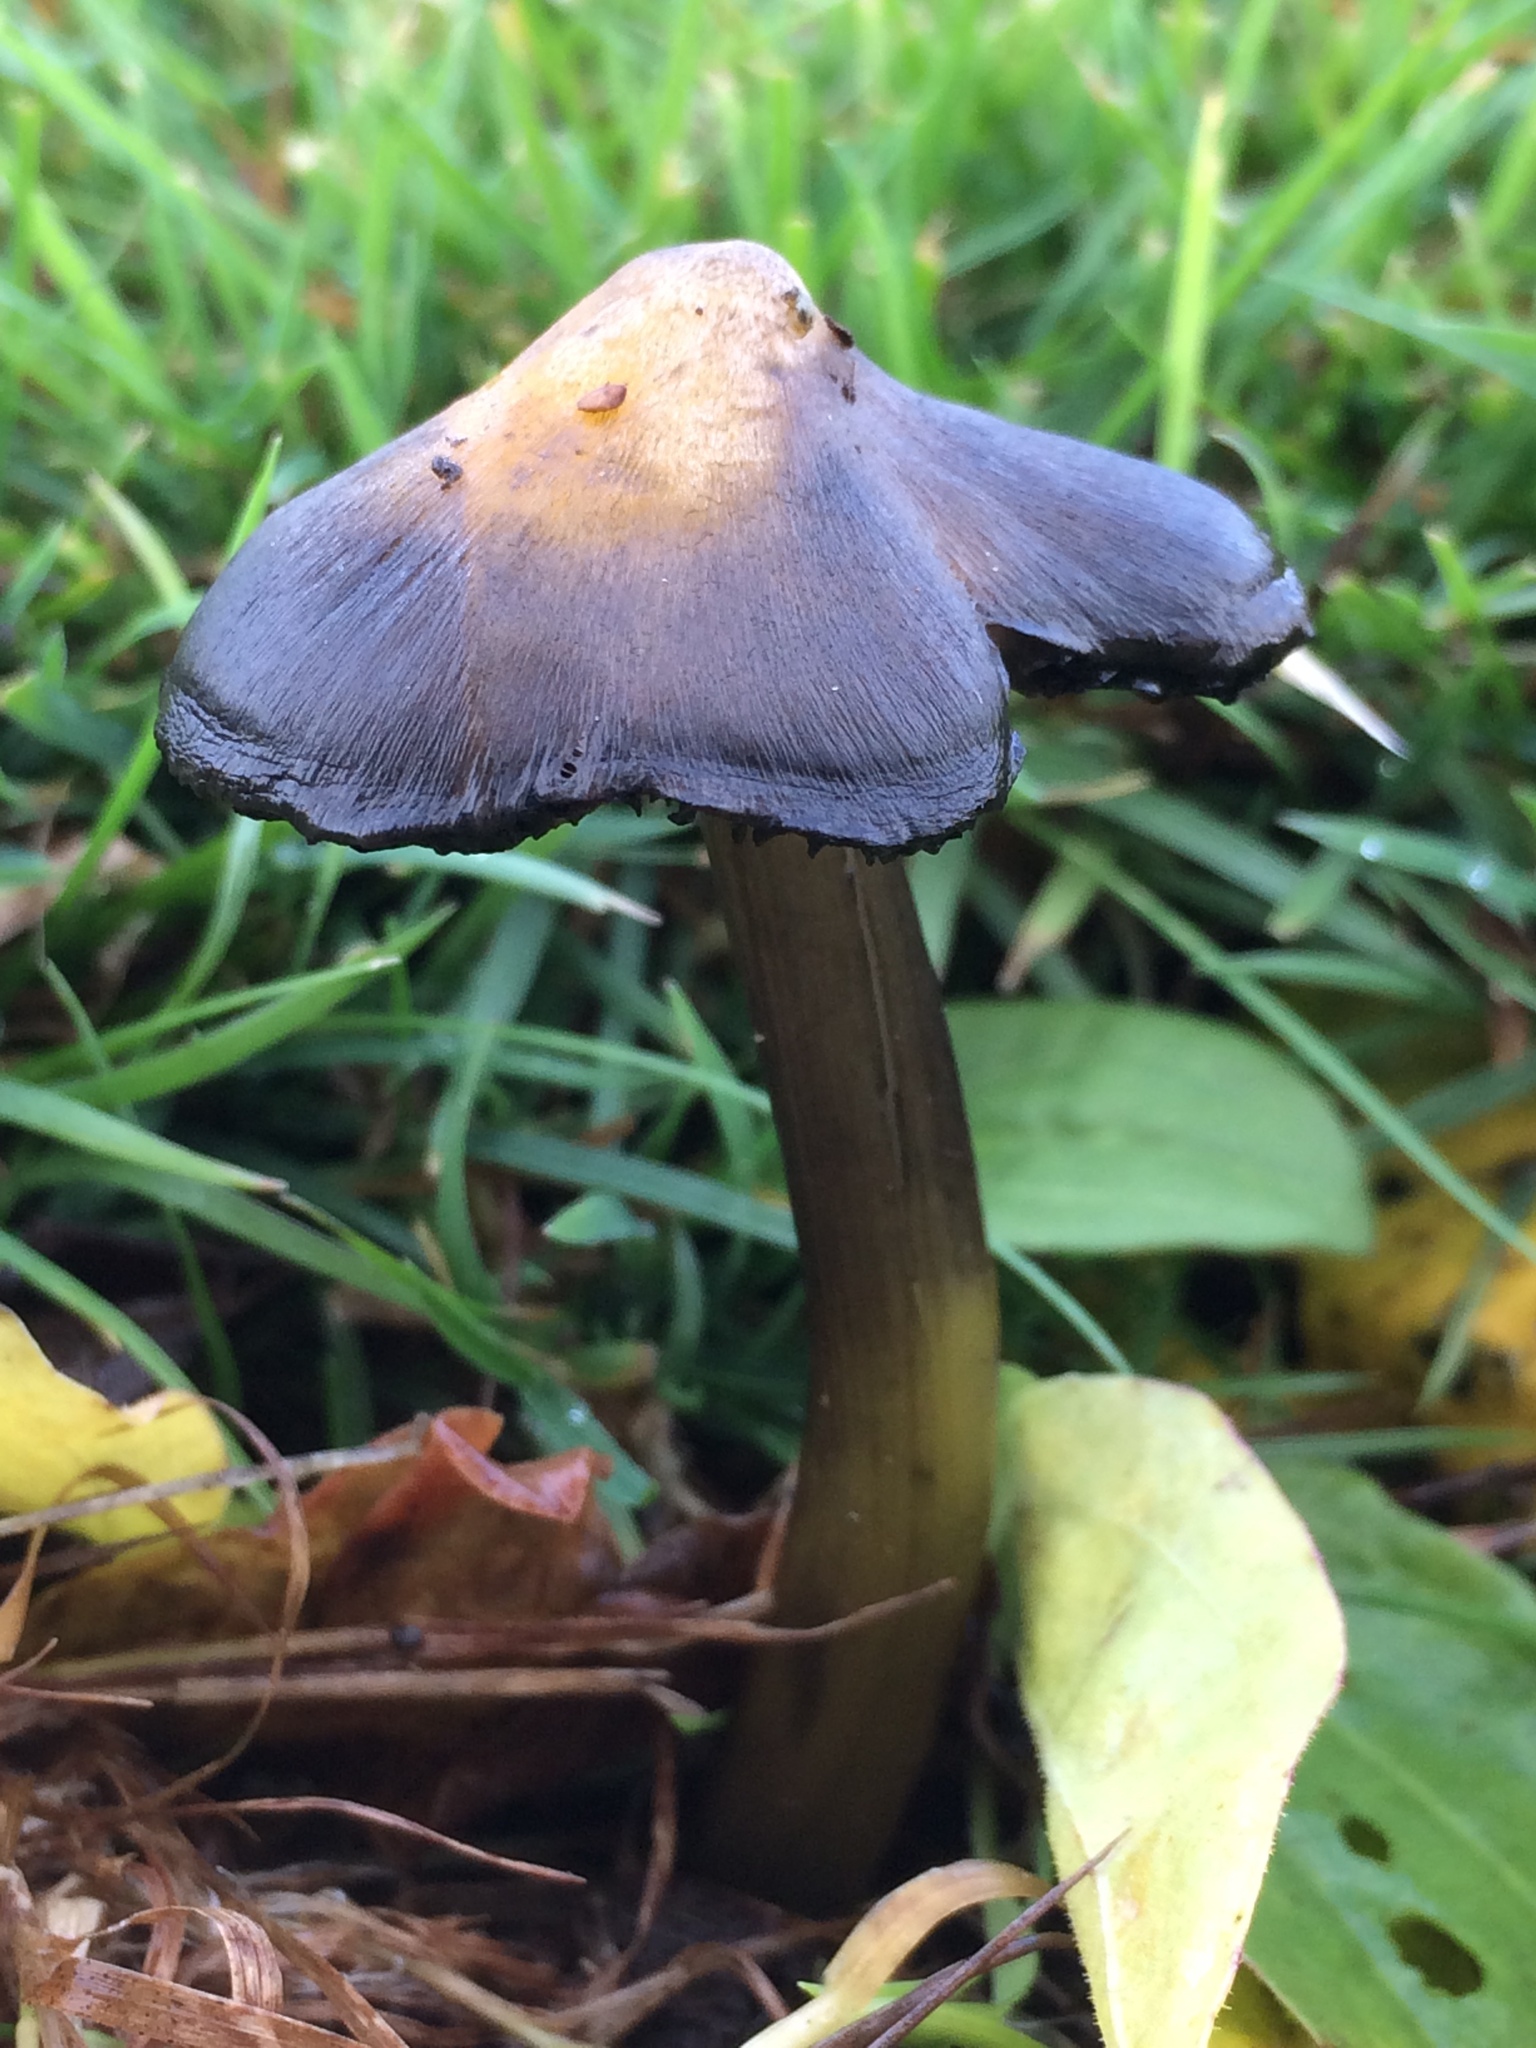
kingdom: Fungi
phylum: Basidiomycota
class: Agaricomycetes
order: Agaricales
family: Hygrophoraceae
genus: Hygrocybe
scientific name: Hygrocybe singeri
